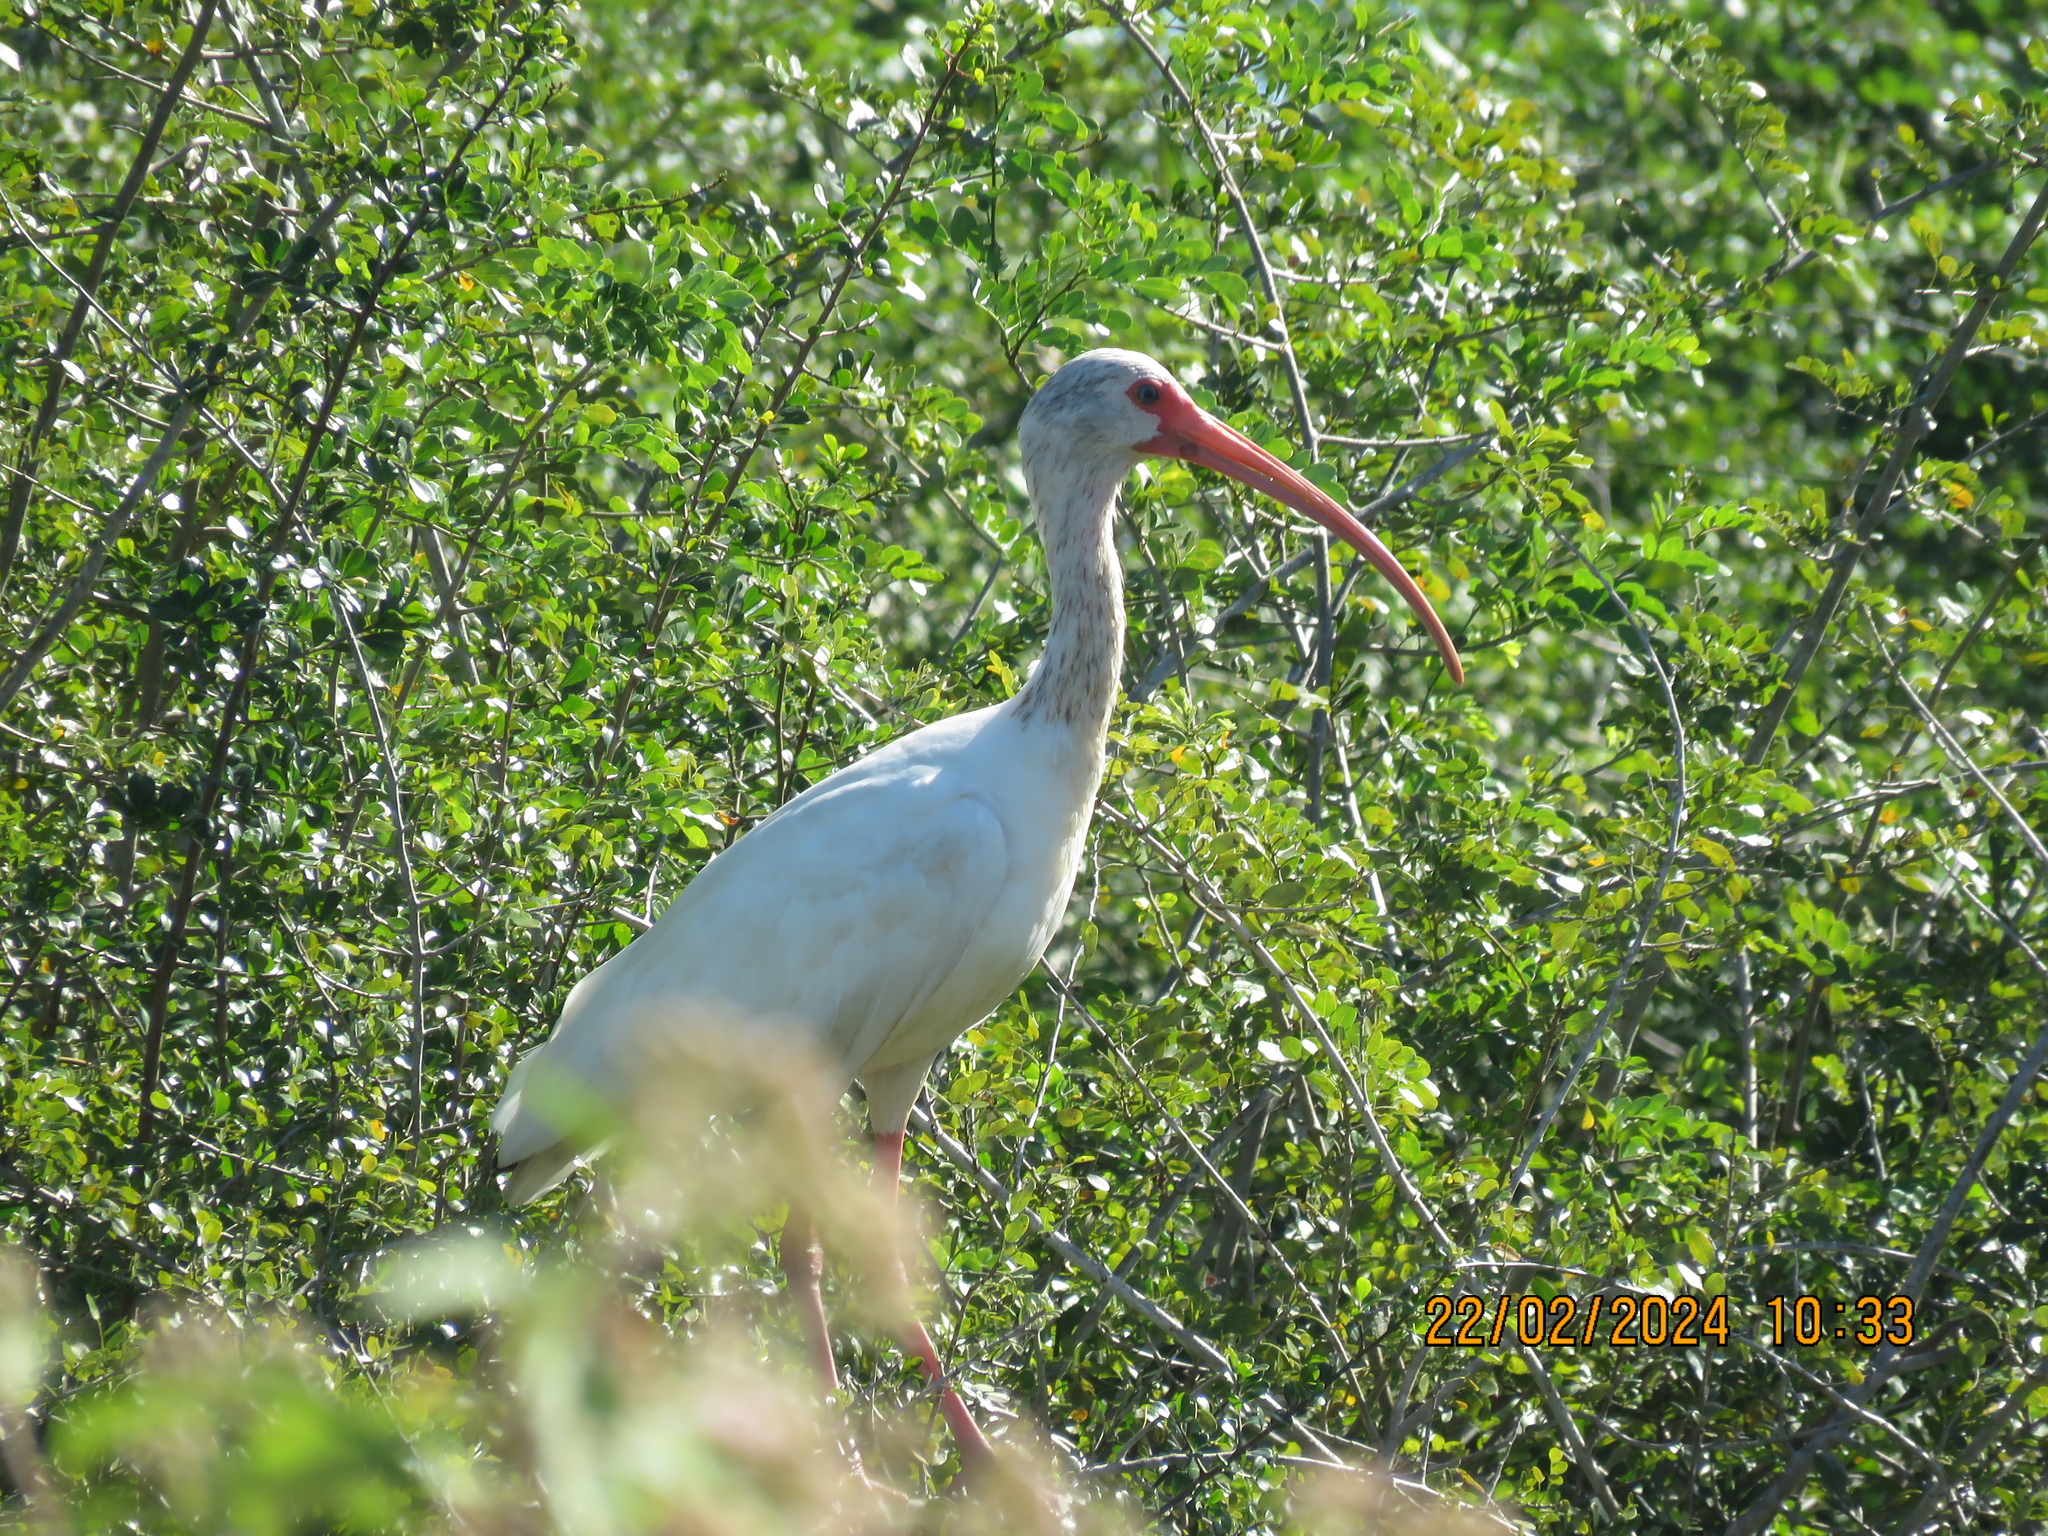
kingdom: Animalia
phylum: Chordata
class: Aves
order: Pelecaniformes
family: Threskiornithidae
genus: Eudocimus
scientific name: Eudocimus albus
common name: White ibis
